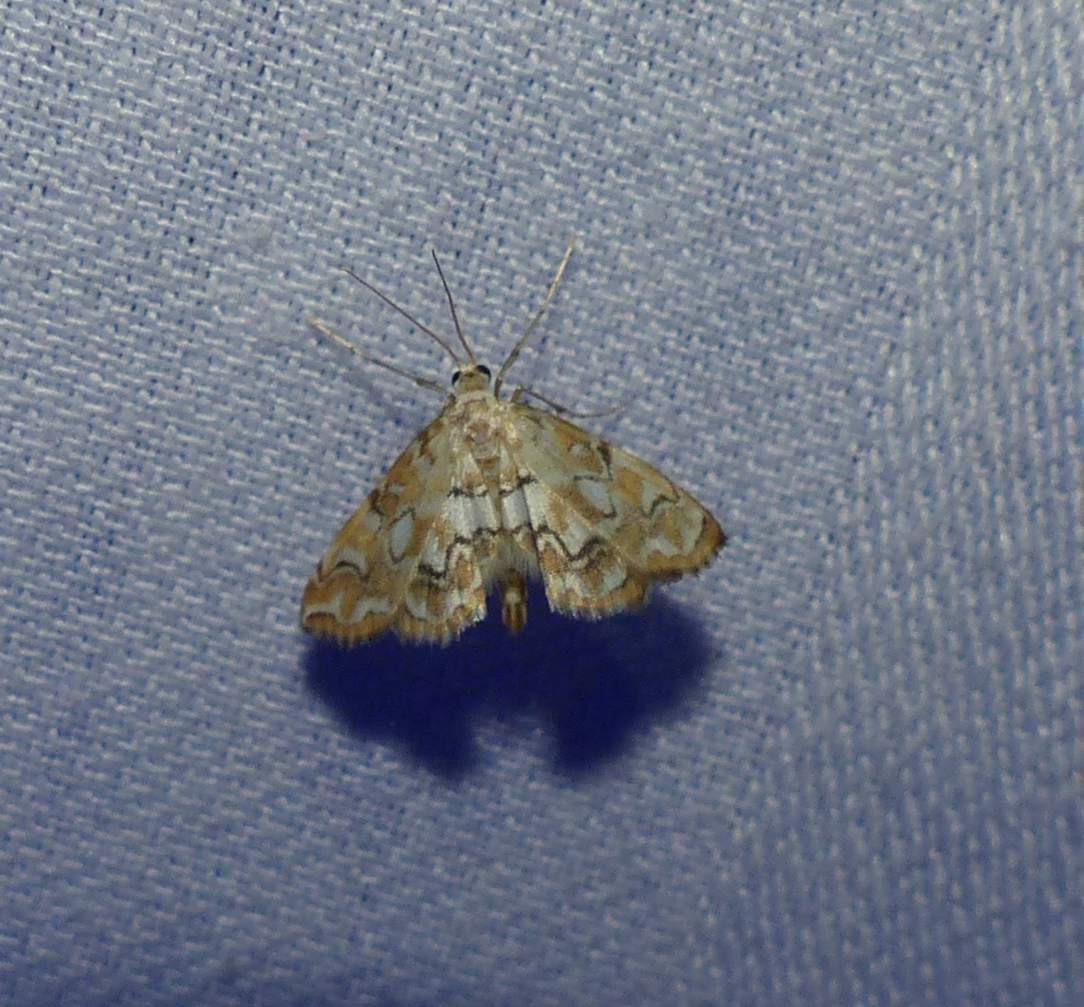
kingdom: Animalia
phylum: Arthropoda
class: Insecta
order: Lepidoptera
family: Crambidae
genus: Elophila
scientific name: Elophila icciusalis
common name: Pondside pyralid moth
